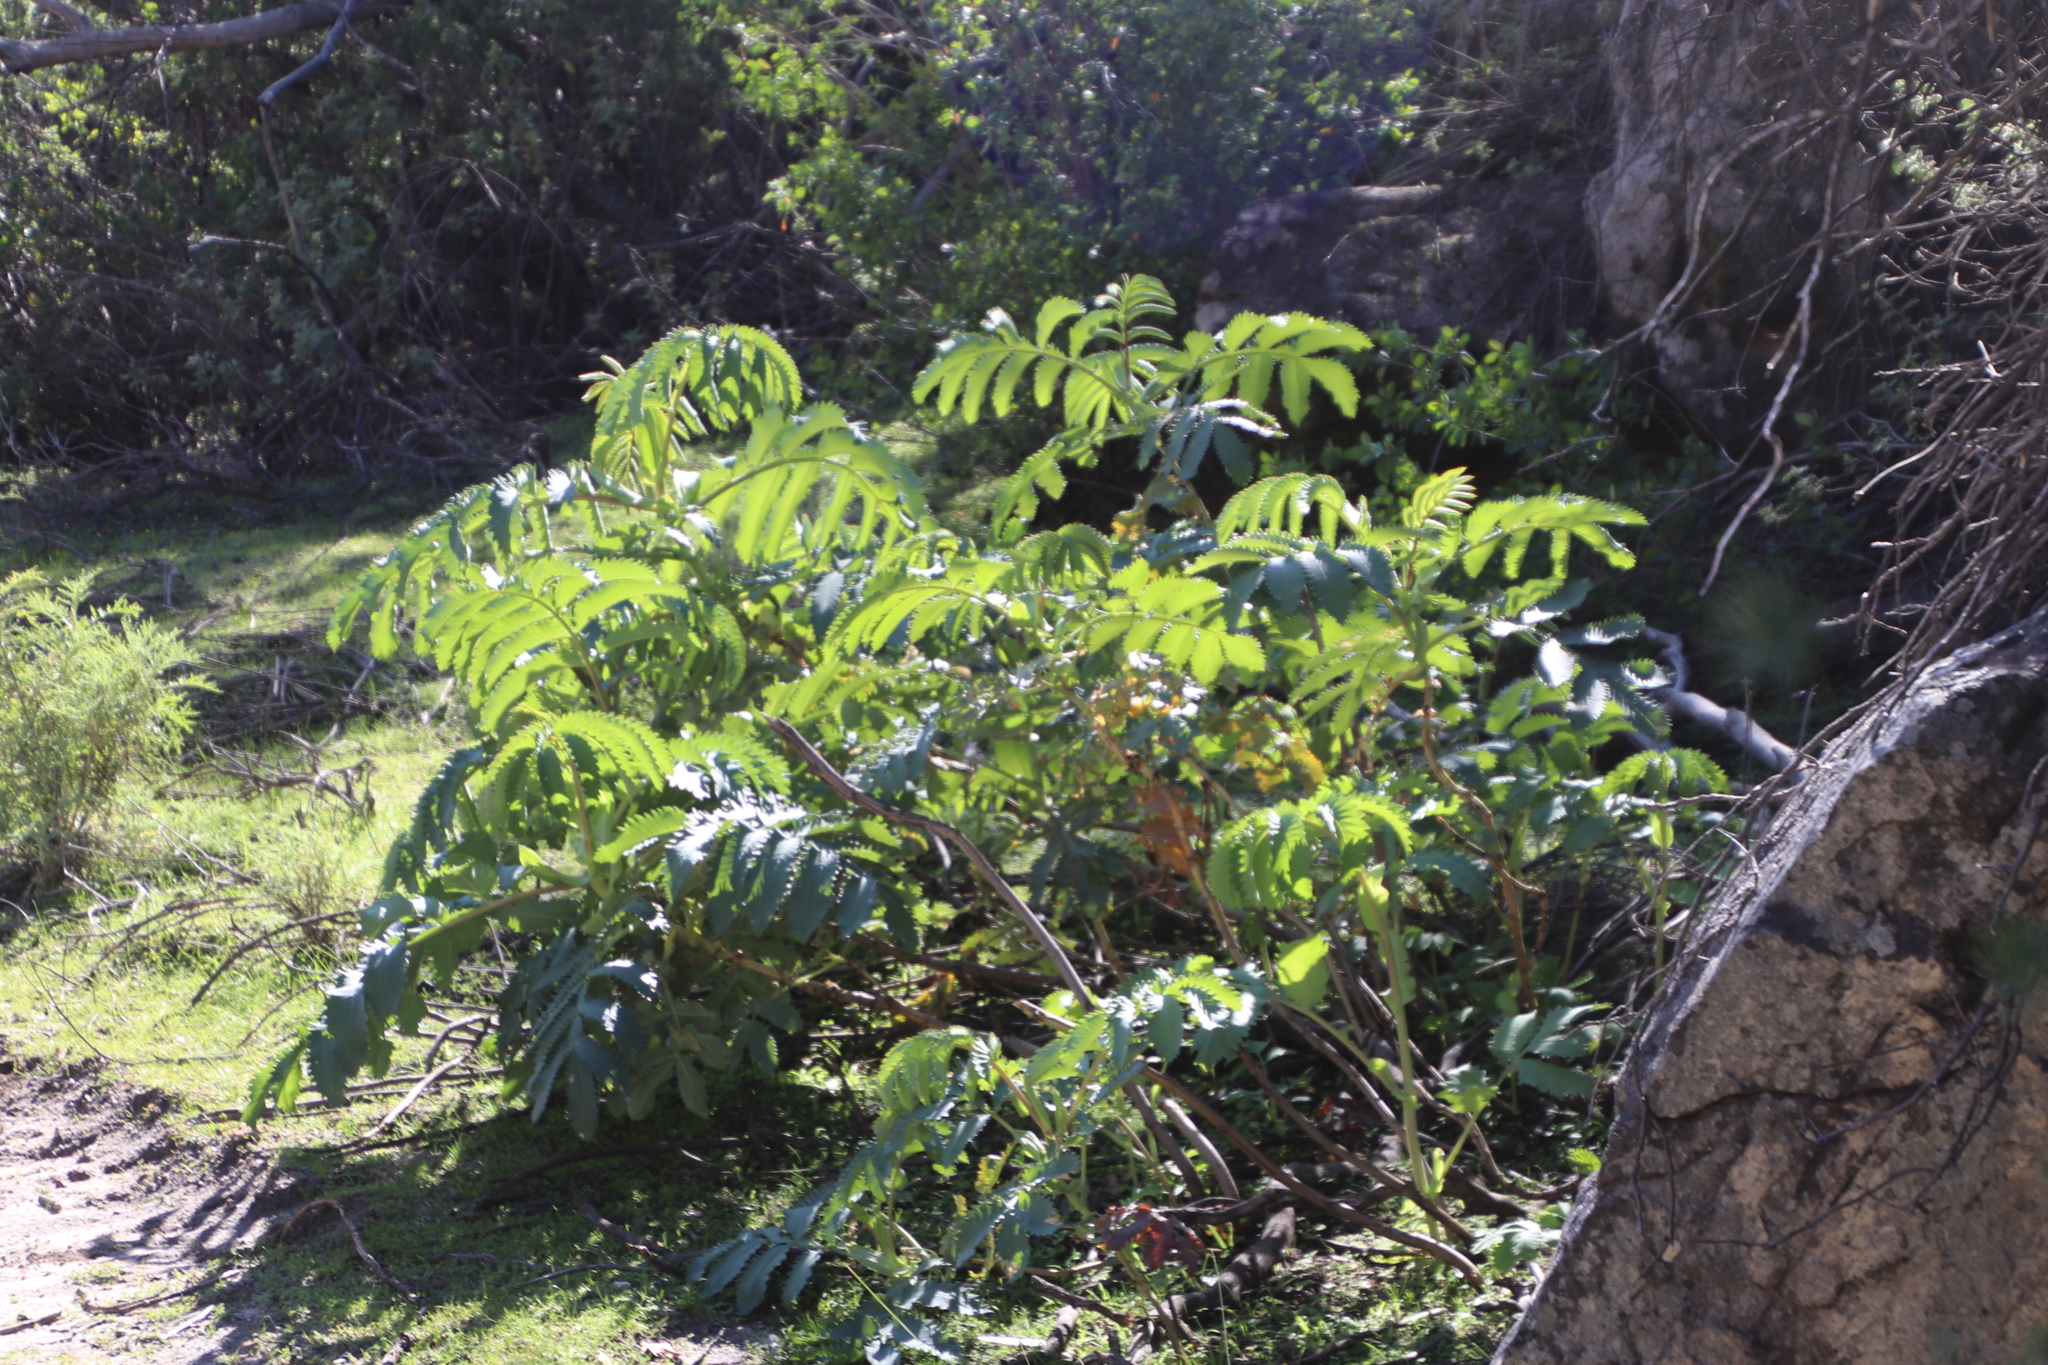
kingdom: Plantae
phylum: Tracheophyta
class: Magnoliopsida
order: Geraniales
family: Melianthaceae
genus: Melianthus
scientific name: Melianthus major
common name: Honey-flower
